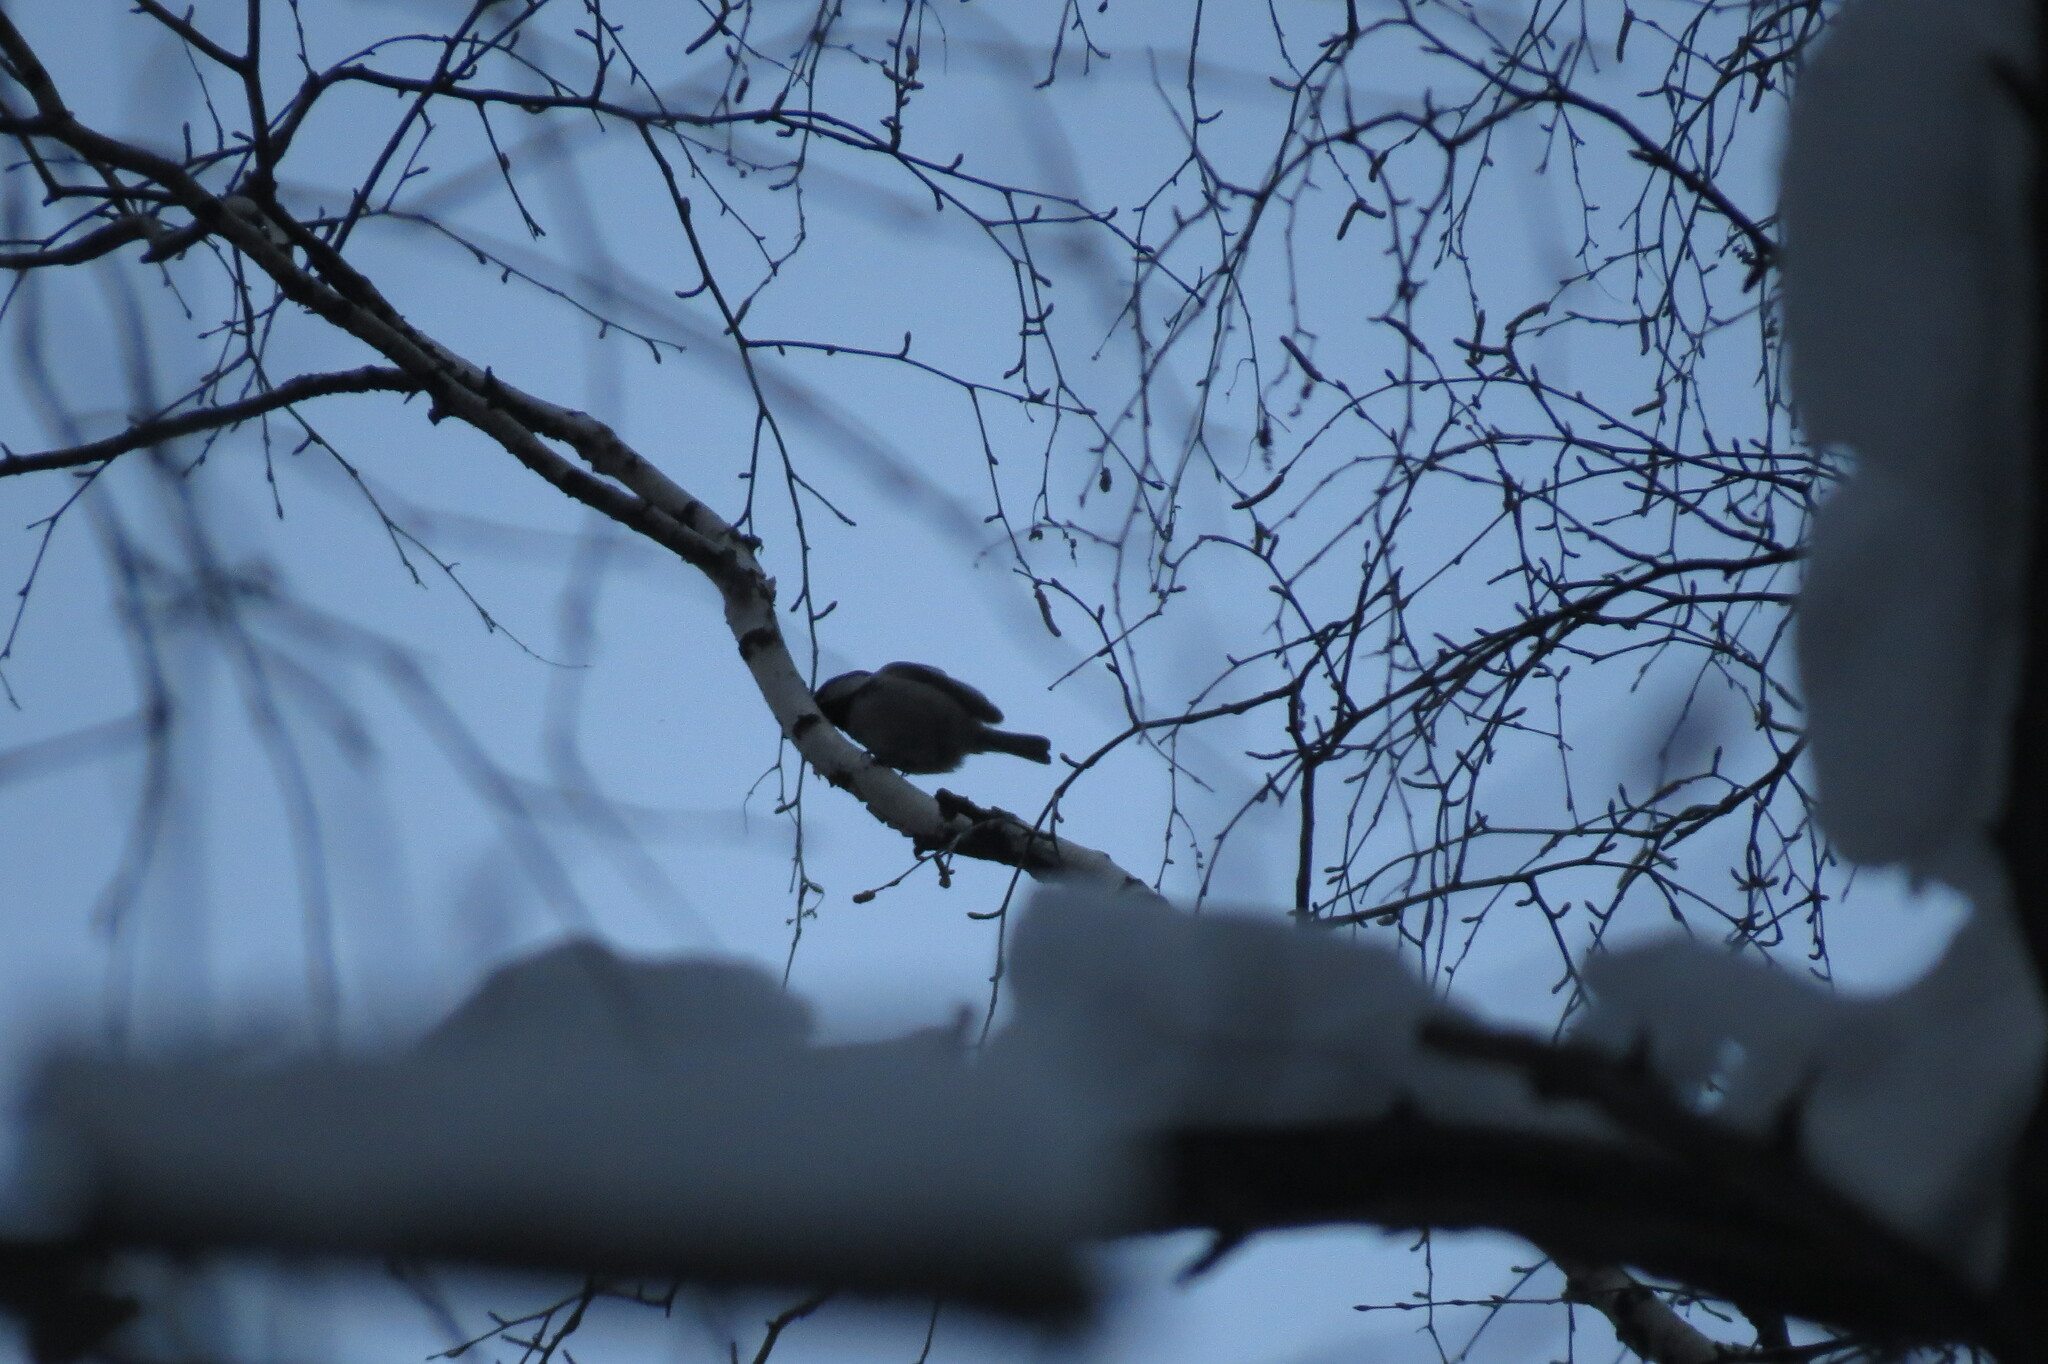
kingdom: Animalia
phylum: Chordata
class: Aves
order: Passeriformes
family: Paridae
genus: Periparus
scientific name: Periparus ater
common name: Coal tit
